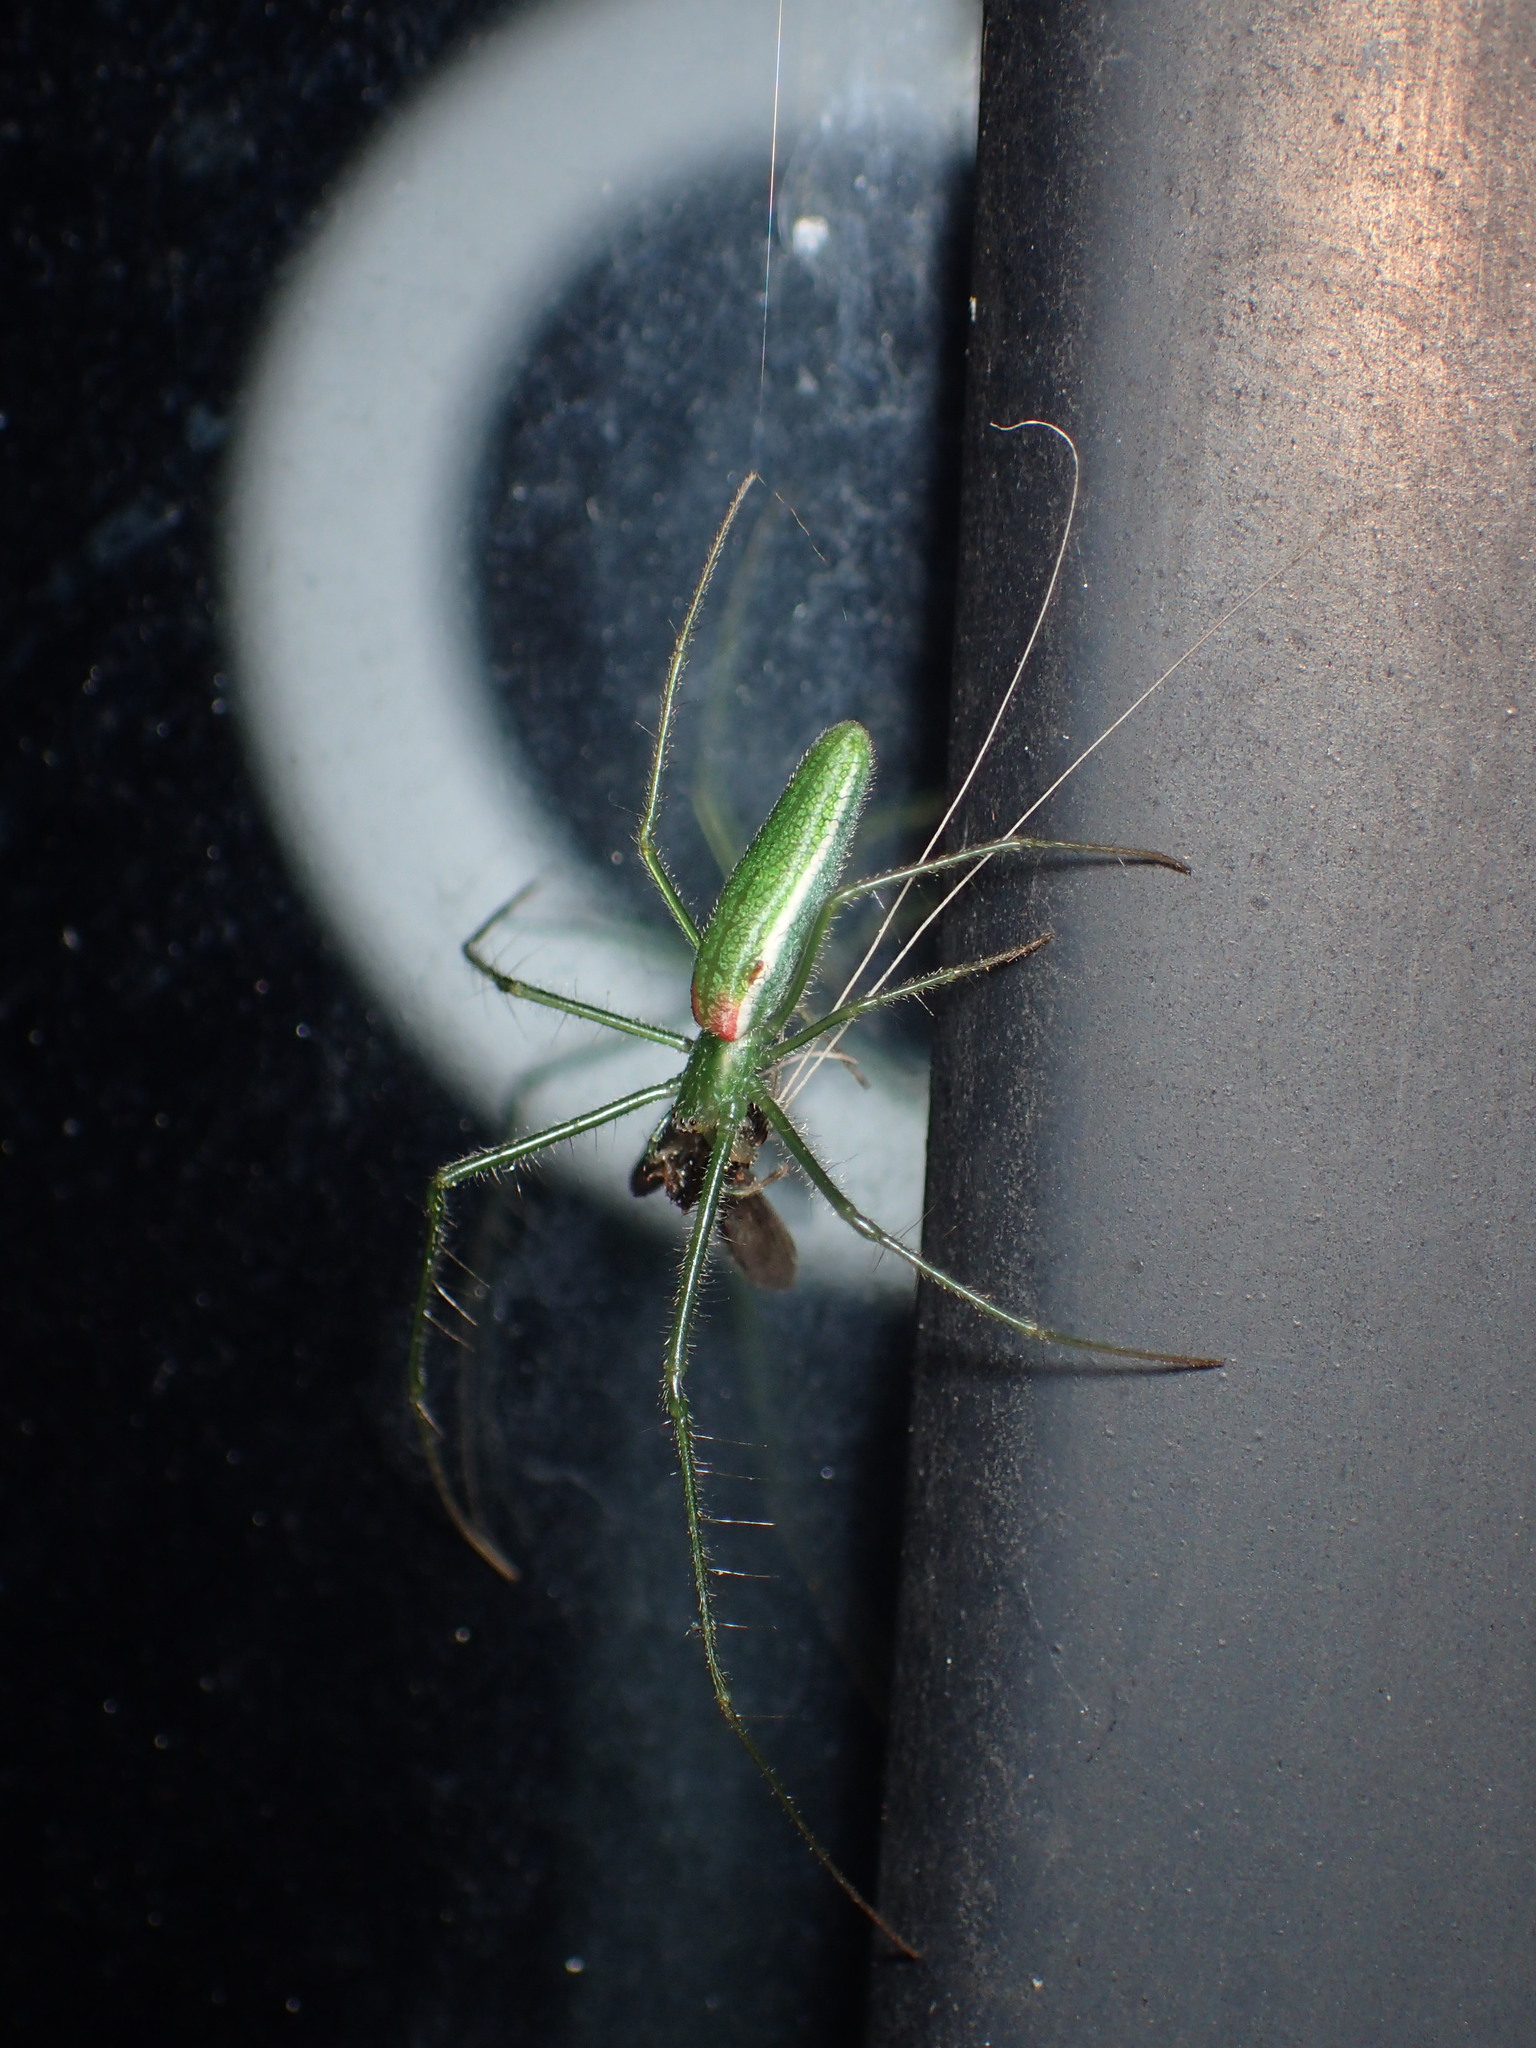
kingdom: Animalia
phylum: Arthropoda
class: Arachnida
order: Araneae
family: Tetragnathidae
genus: Tetragnatha
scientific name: Tetragnatha viridis
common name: Green long-jawed spider
